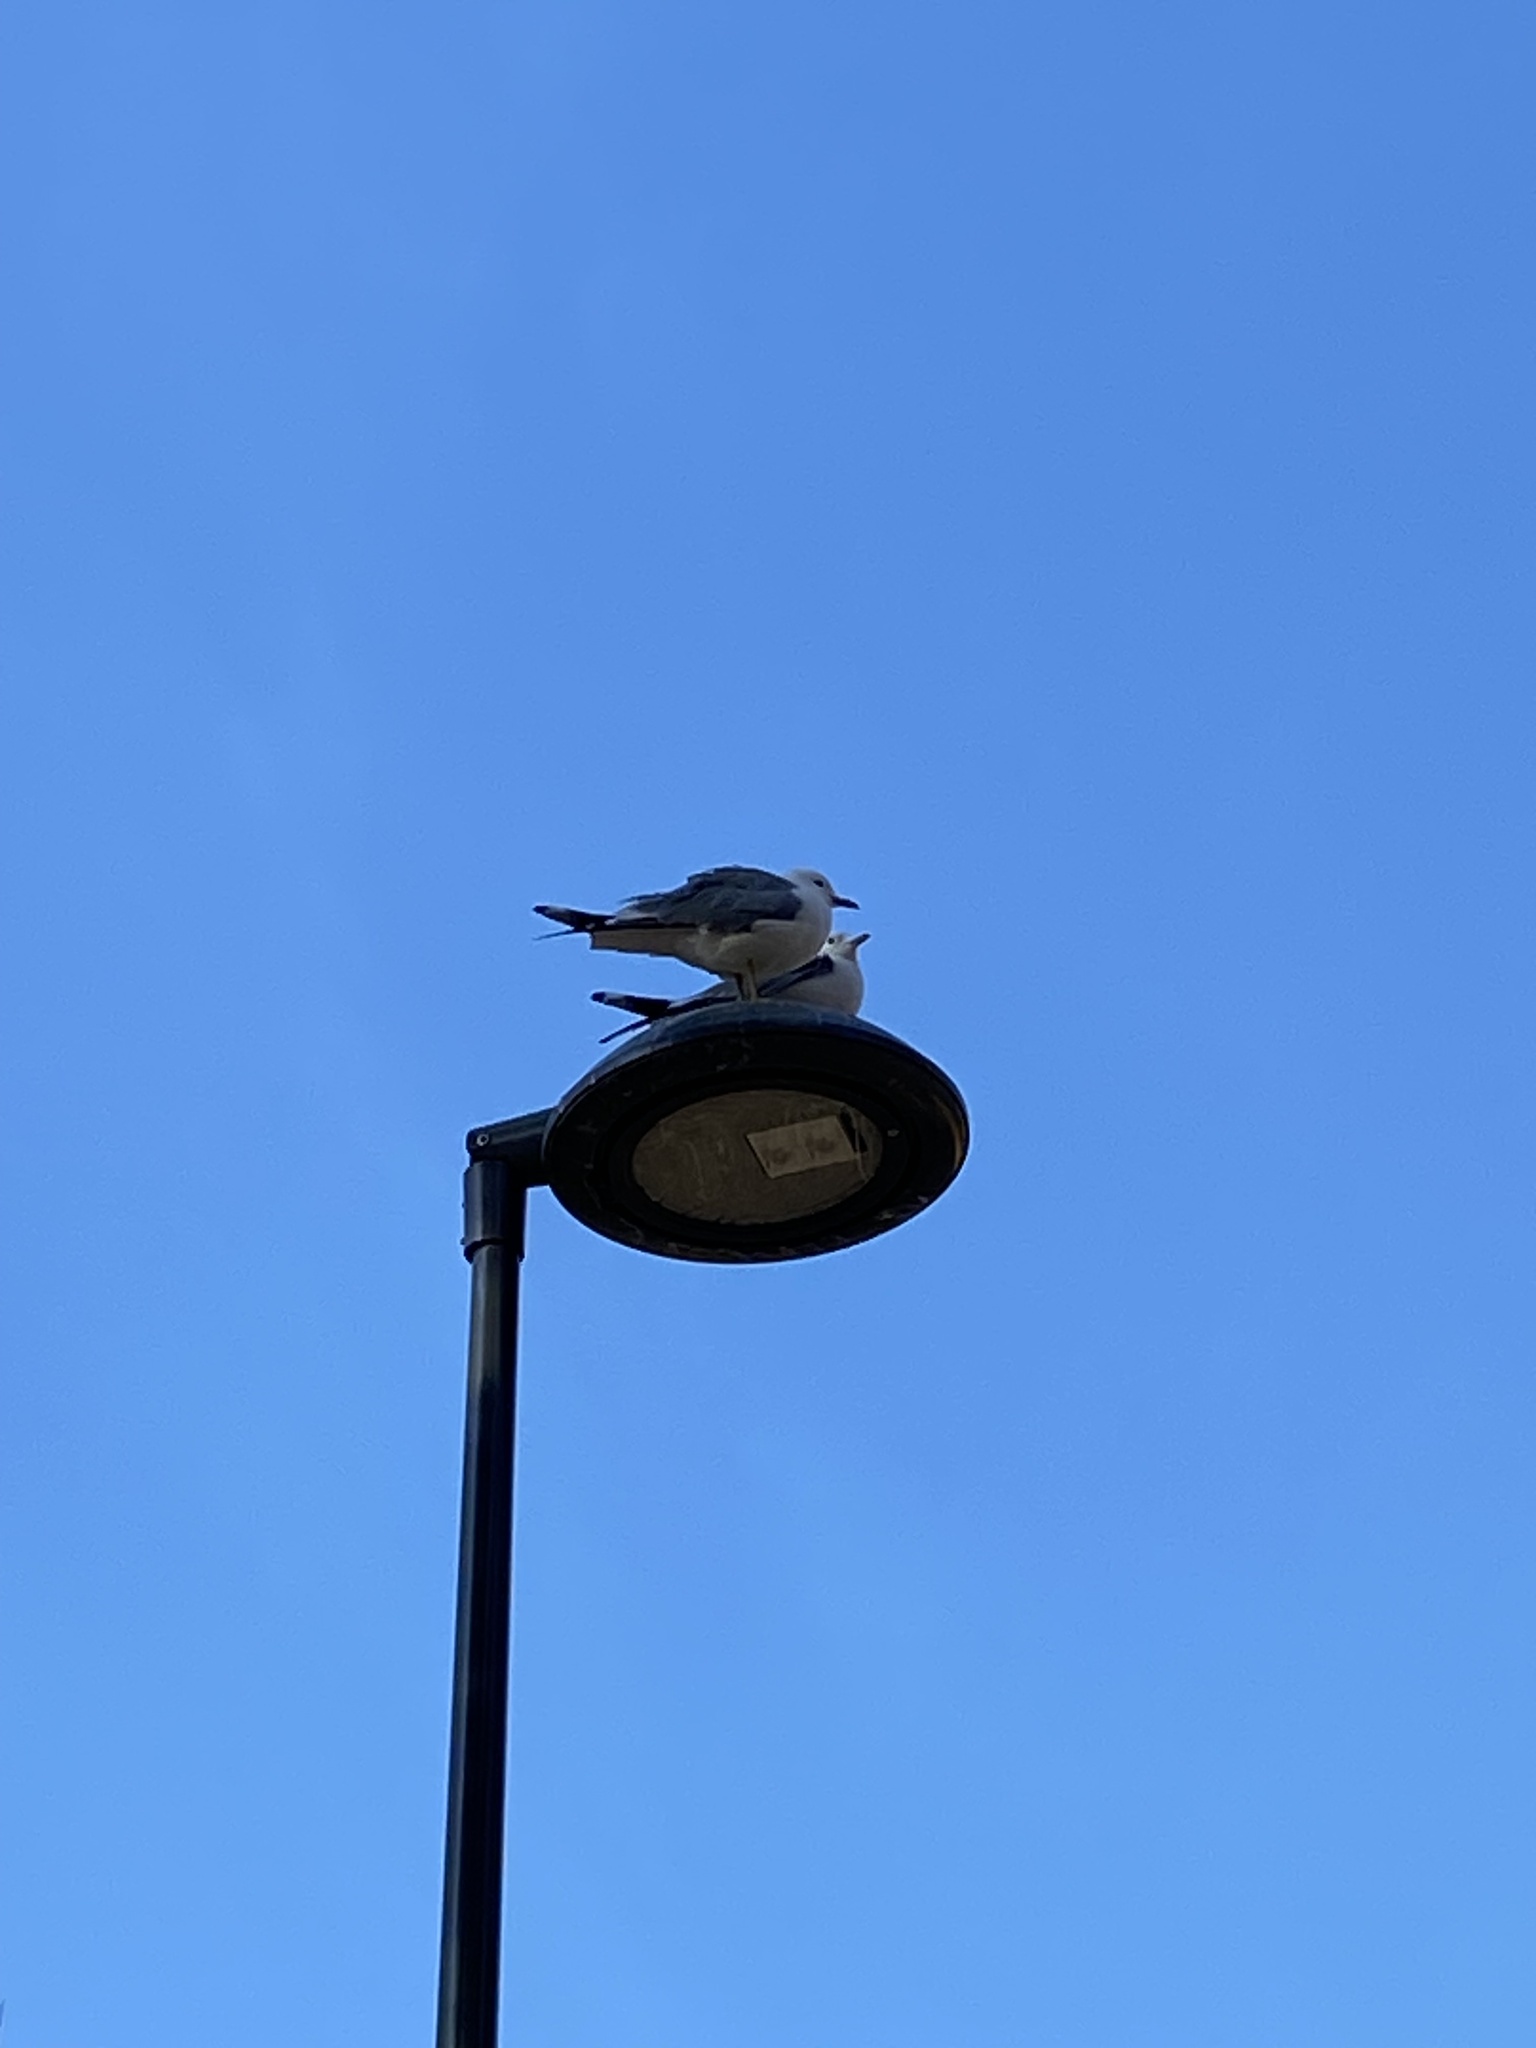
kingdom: Animalia
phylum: Chordata
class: Aves
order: Charadriiformes
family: Laridae
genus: Larus
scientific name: Larus canus
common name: Mew gull
